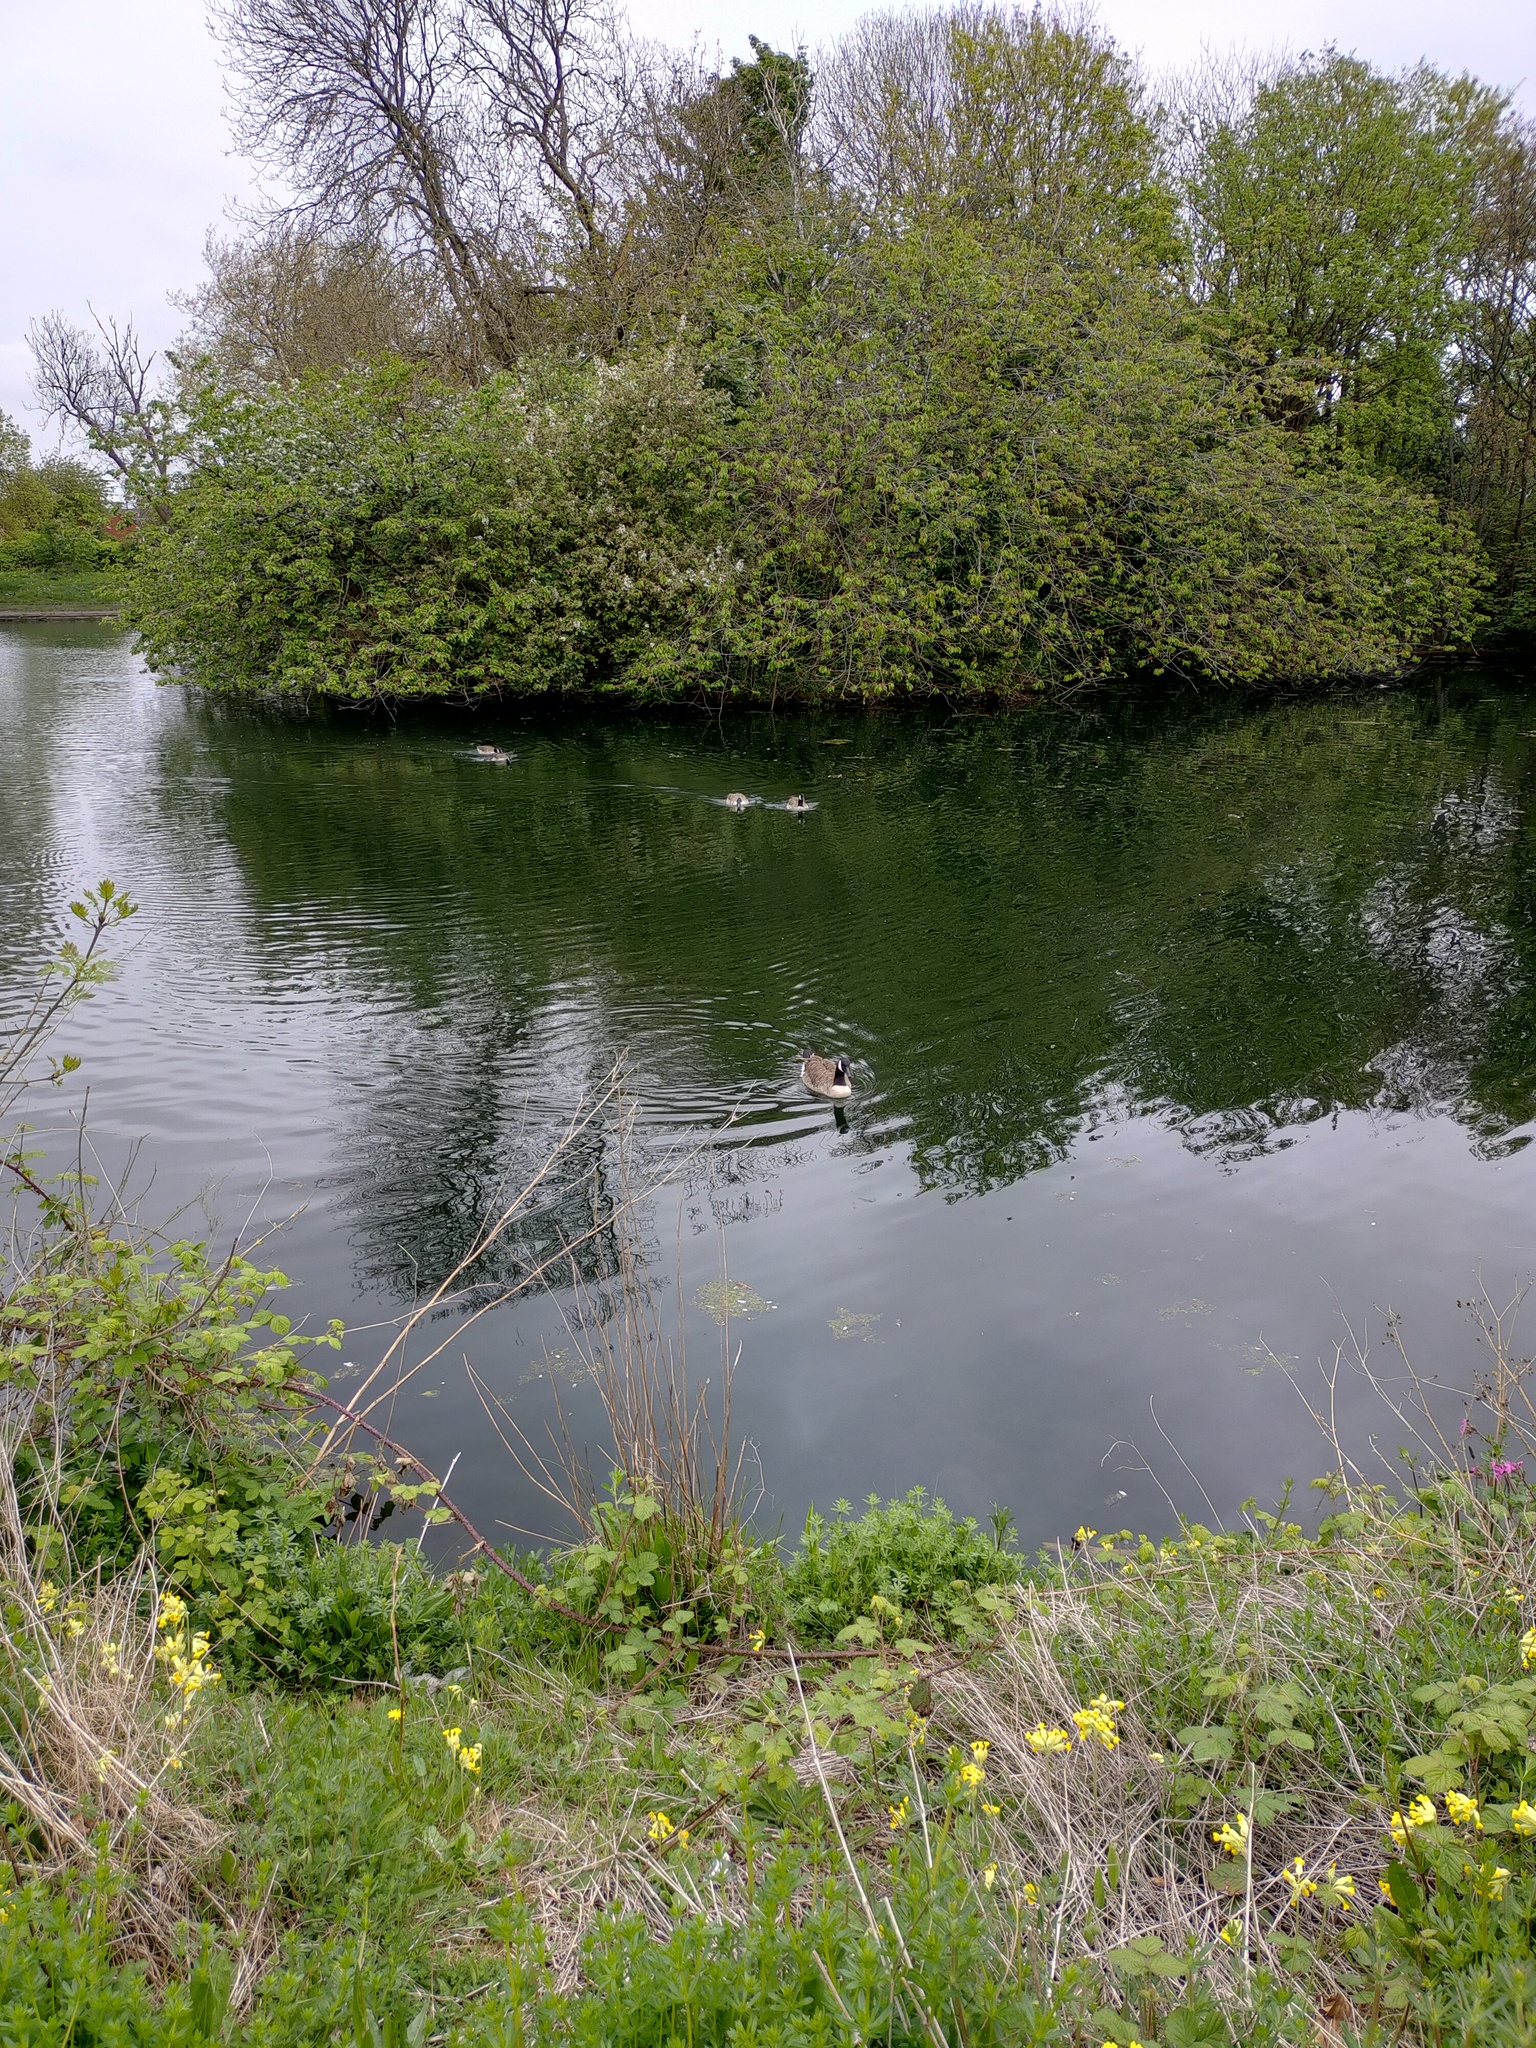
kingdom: Animalia
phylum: Chordata
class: Aves
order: Anseriformes
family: Anatidae
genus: Branta
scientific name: Branta canadensis
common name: Canada goose
